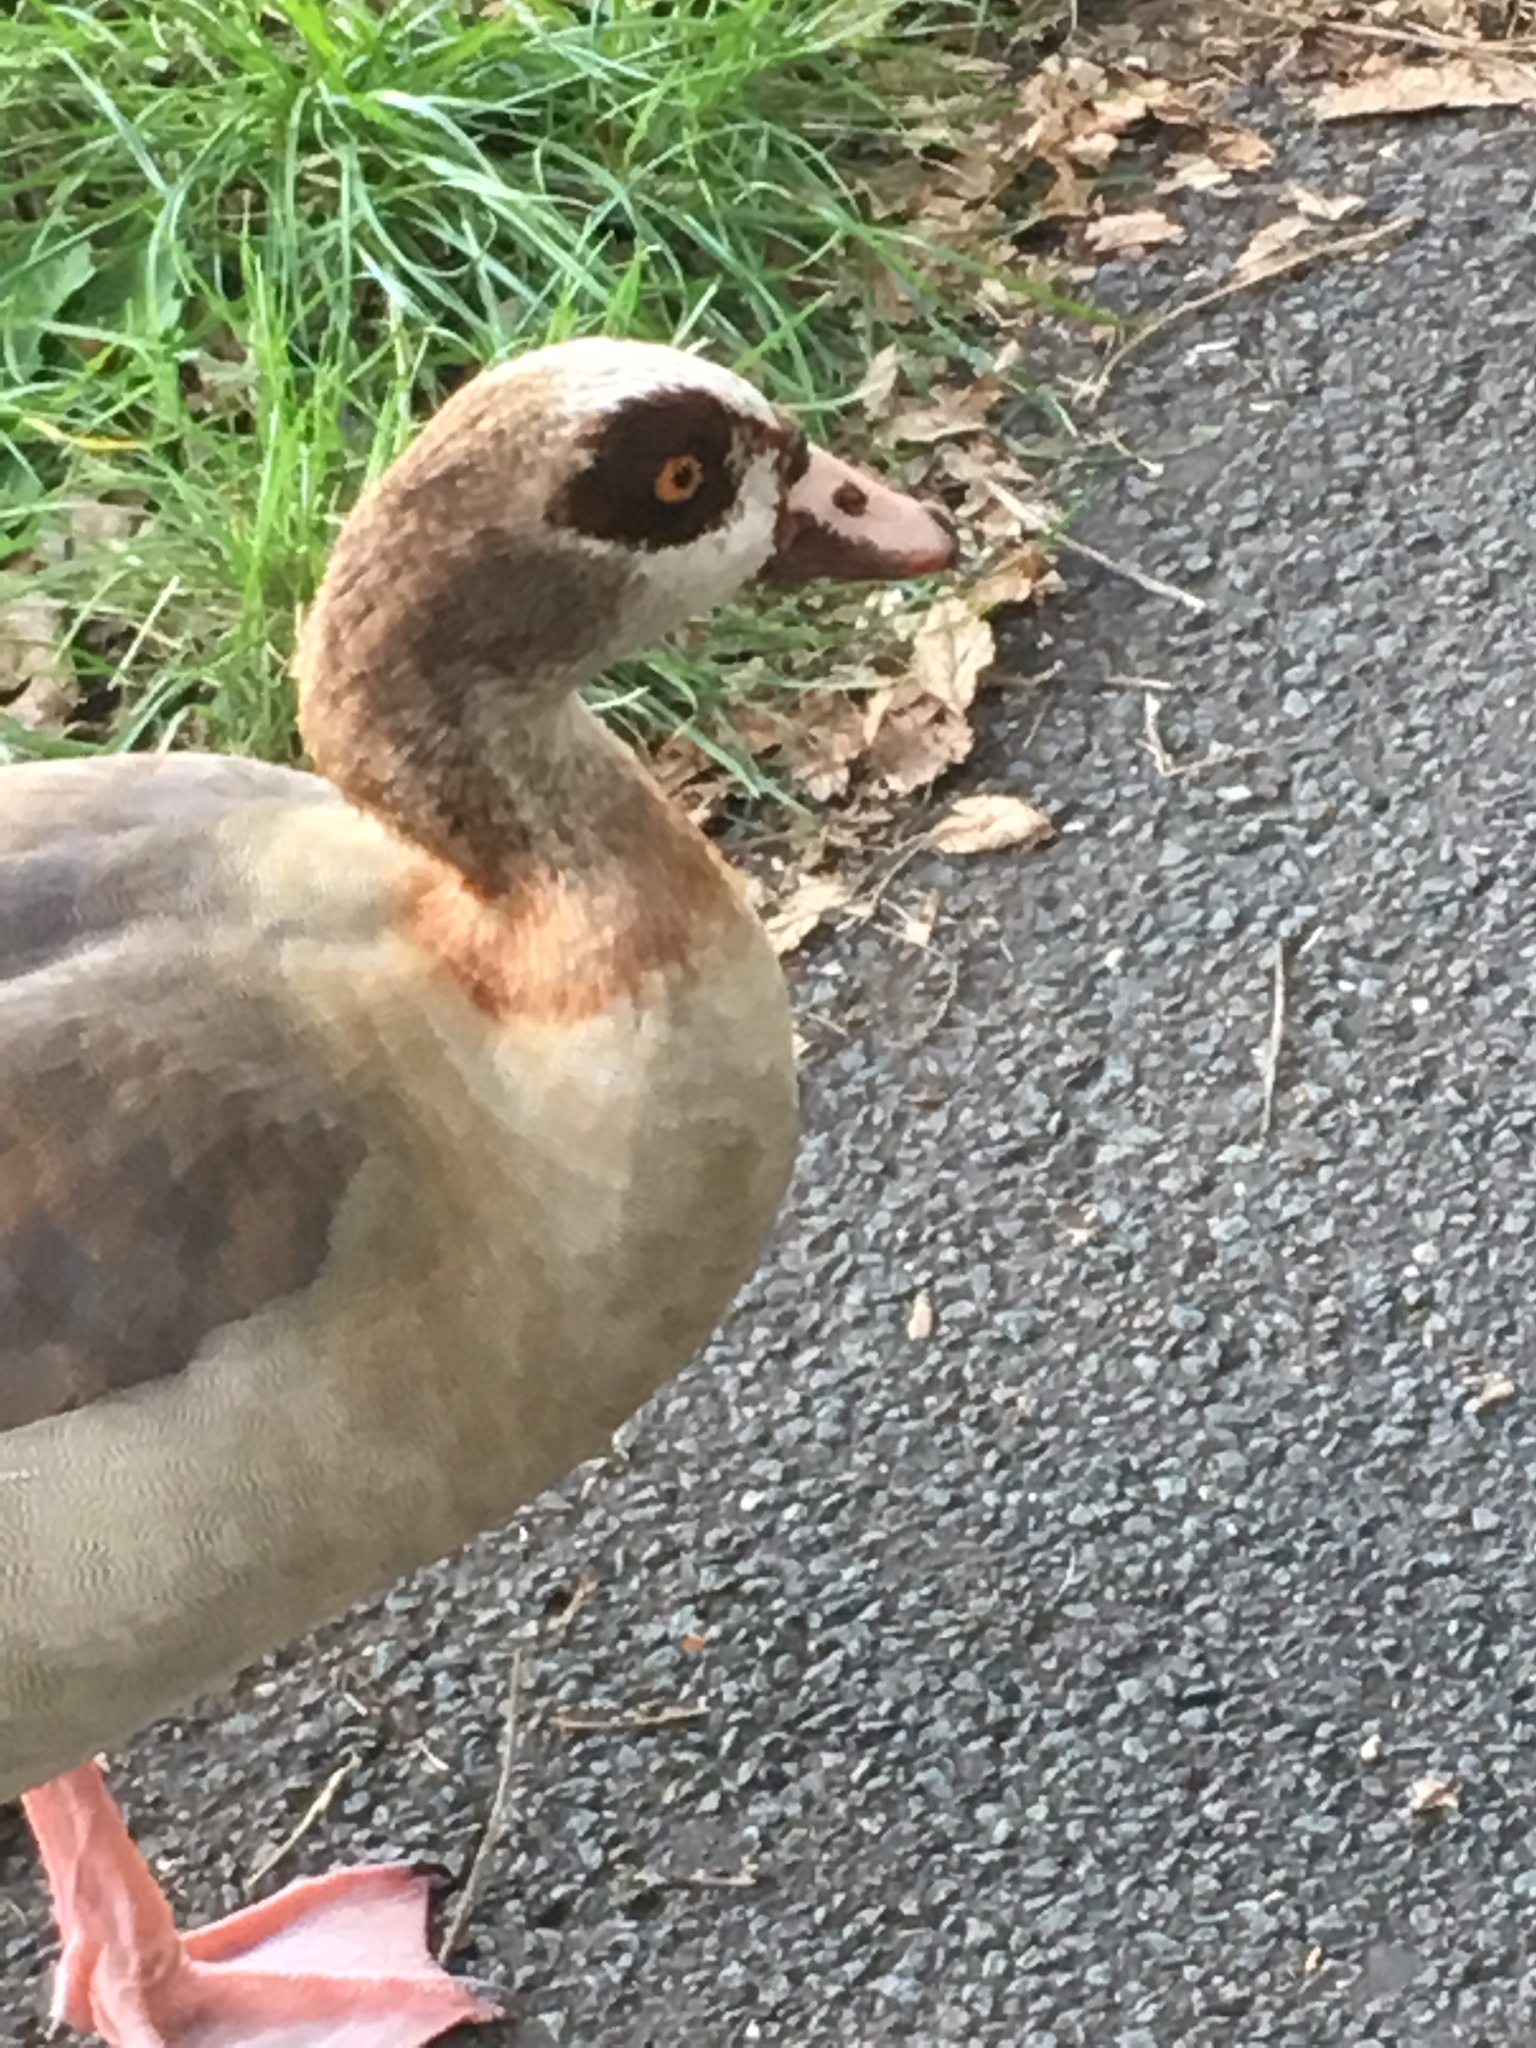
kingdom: Animalia
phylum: Chordata
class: Aves
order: Anseriformes
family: Anatidae
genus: Alopochen
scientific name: Alopochen aegyptiaca
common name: Egyptian goose
